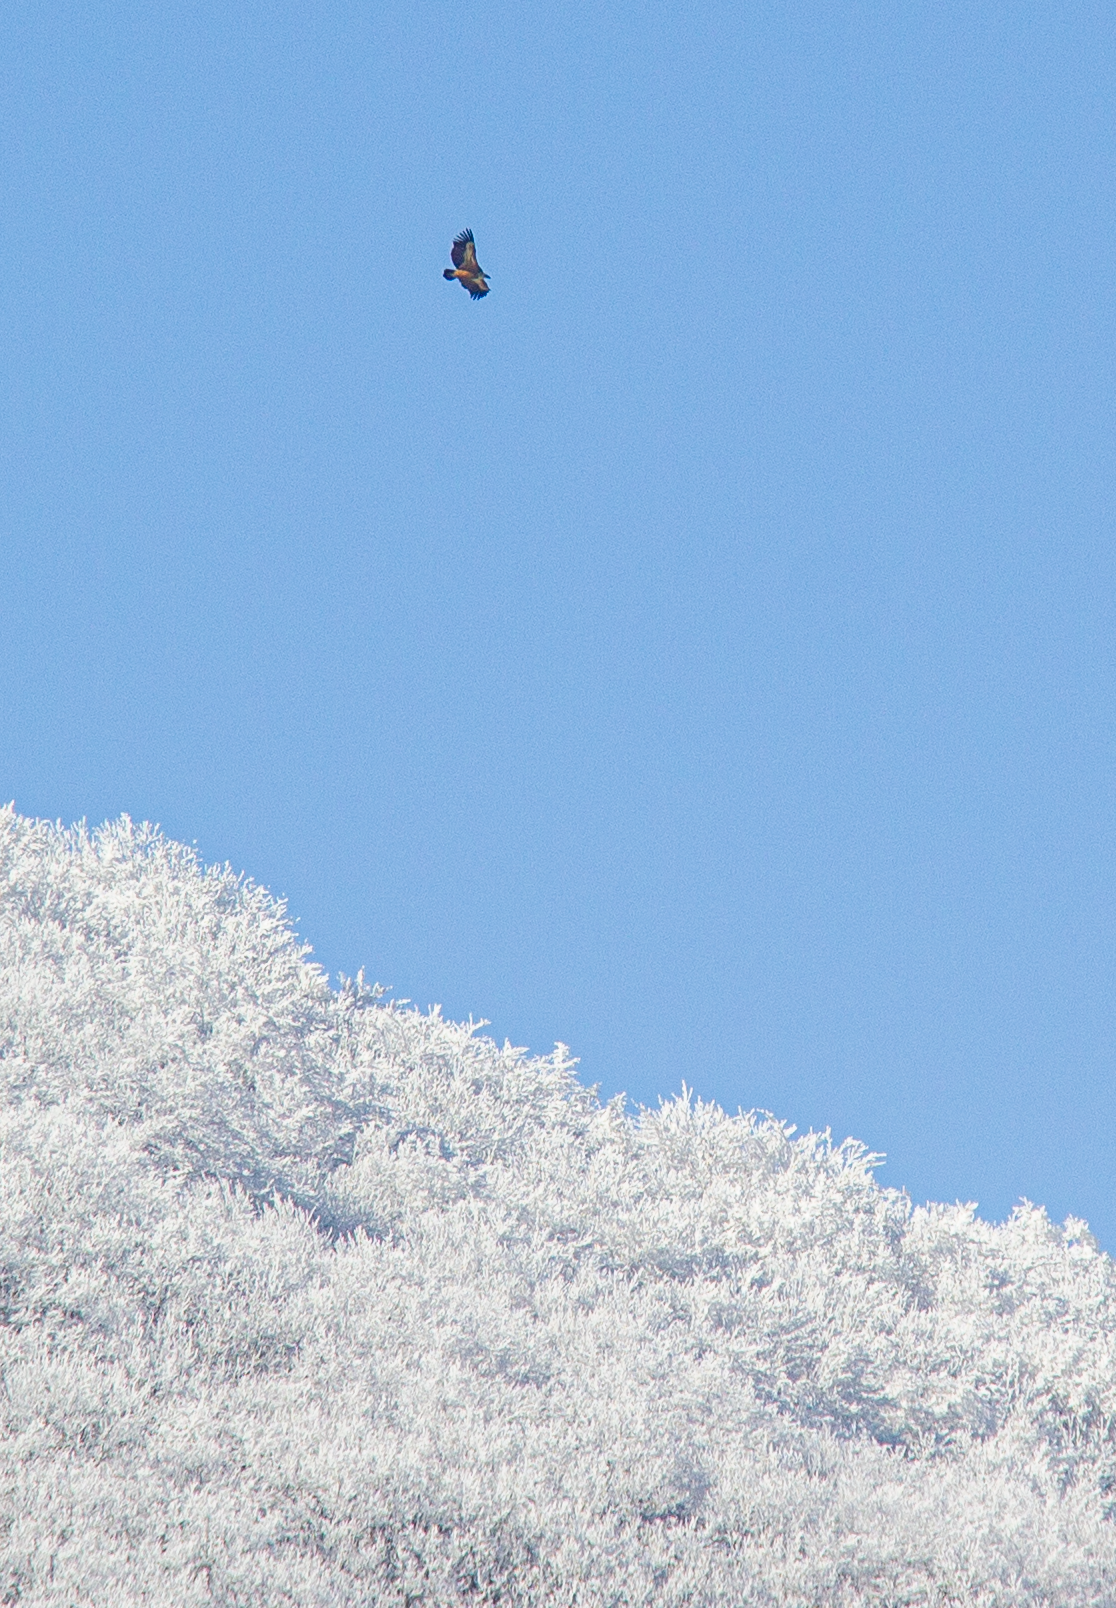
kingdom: Animalia
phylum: Chordata
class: Aves
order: Accipitriformes
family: Accipitridae
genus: Gyps
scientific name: Gyps fulvus
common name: Griffon vulture
